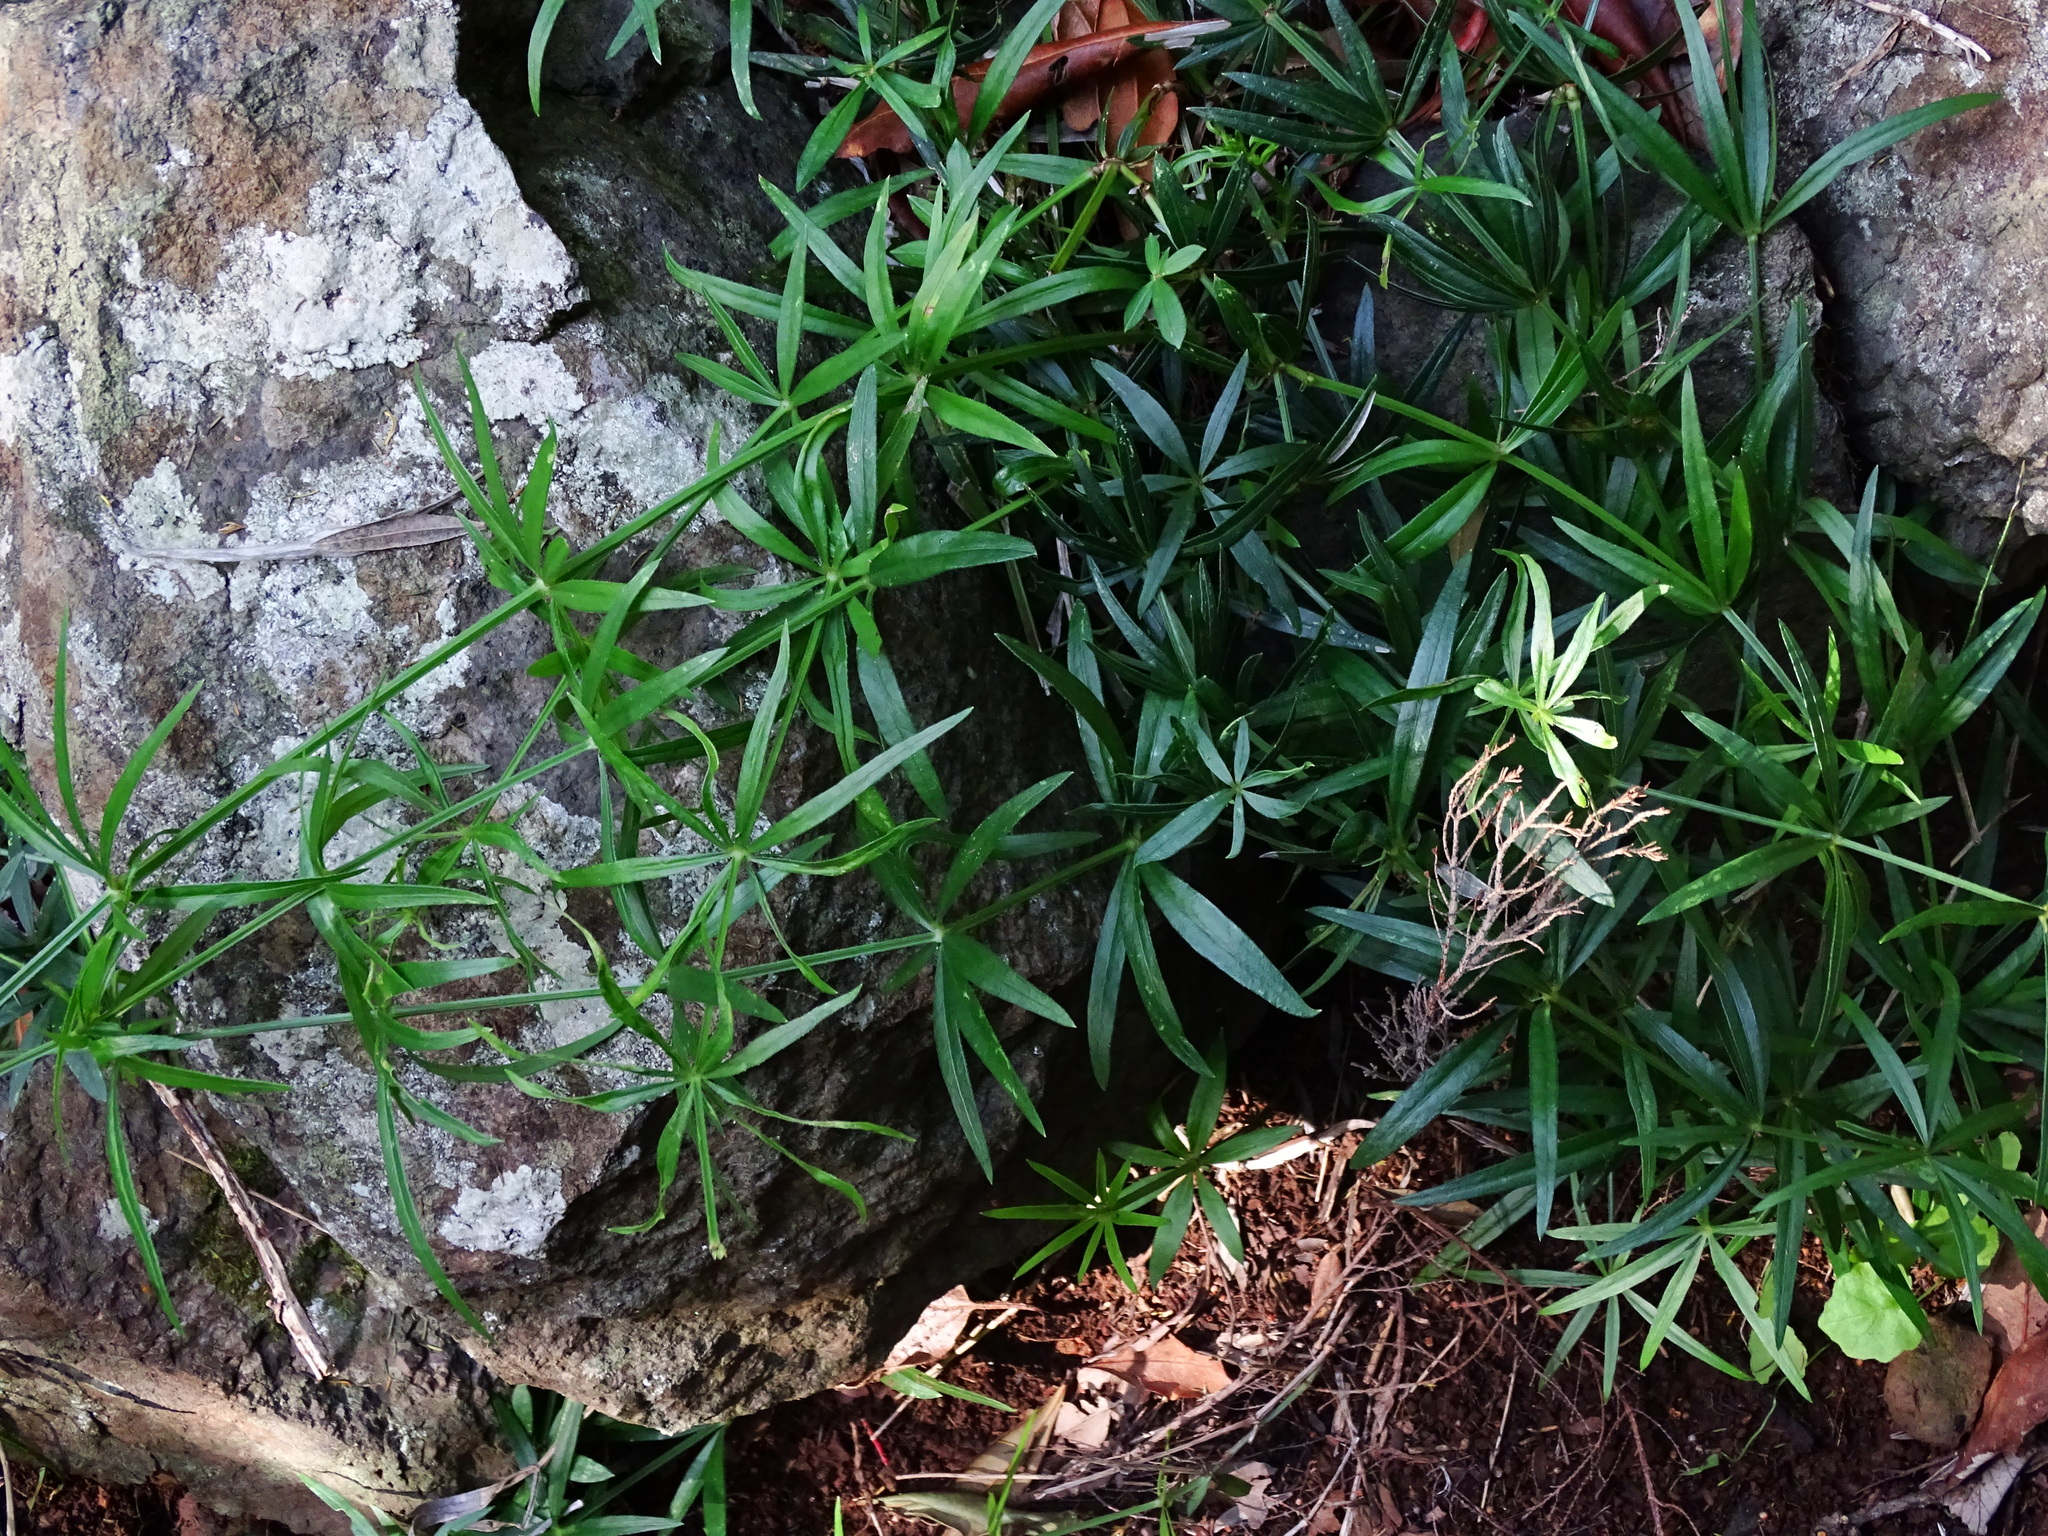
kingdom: Plantae
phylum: Tracheophyta
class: Magnoliopsida
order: Gentianales
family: Rubiaceae
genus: Rubia
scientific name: Rubia occidens
